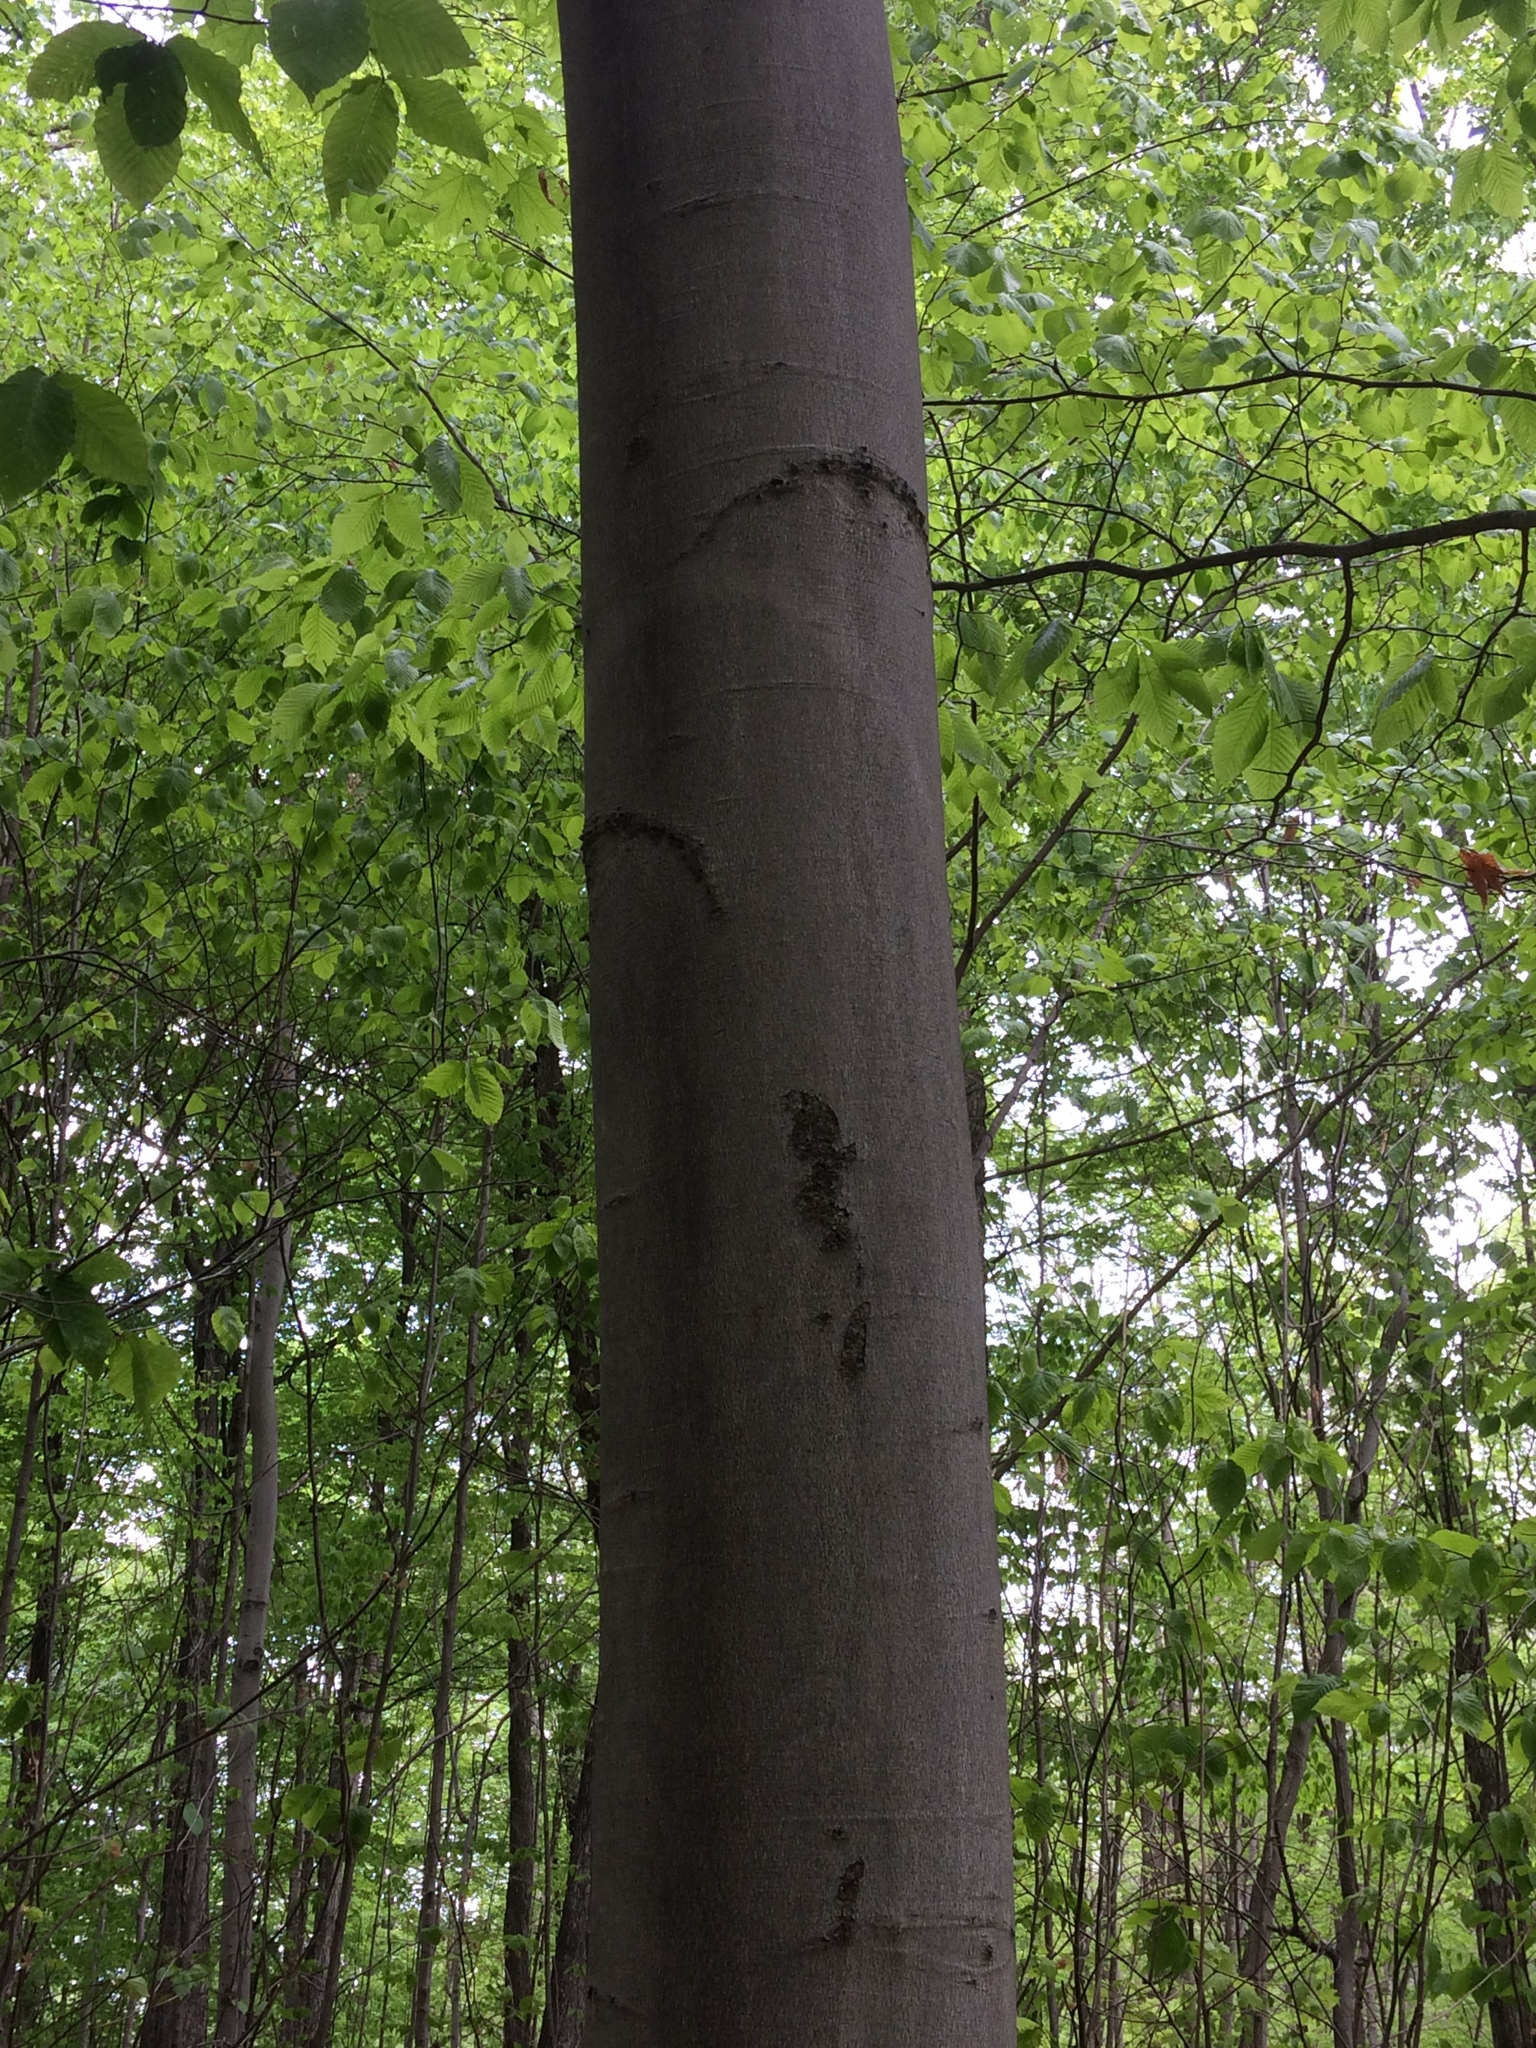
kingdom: Plantae
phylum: Tracheophyta
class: Magnoliopsida
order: Fagales
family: Fagaceae
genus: Fagus
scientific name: Fagus grandifolia
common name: American beech
